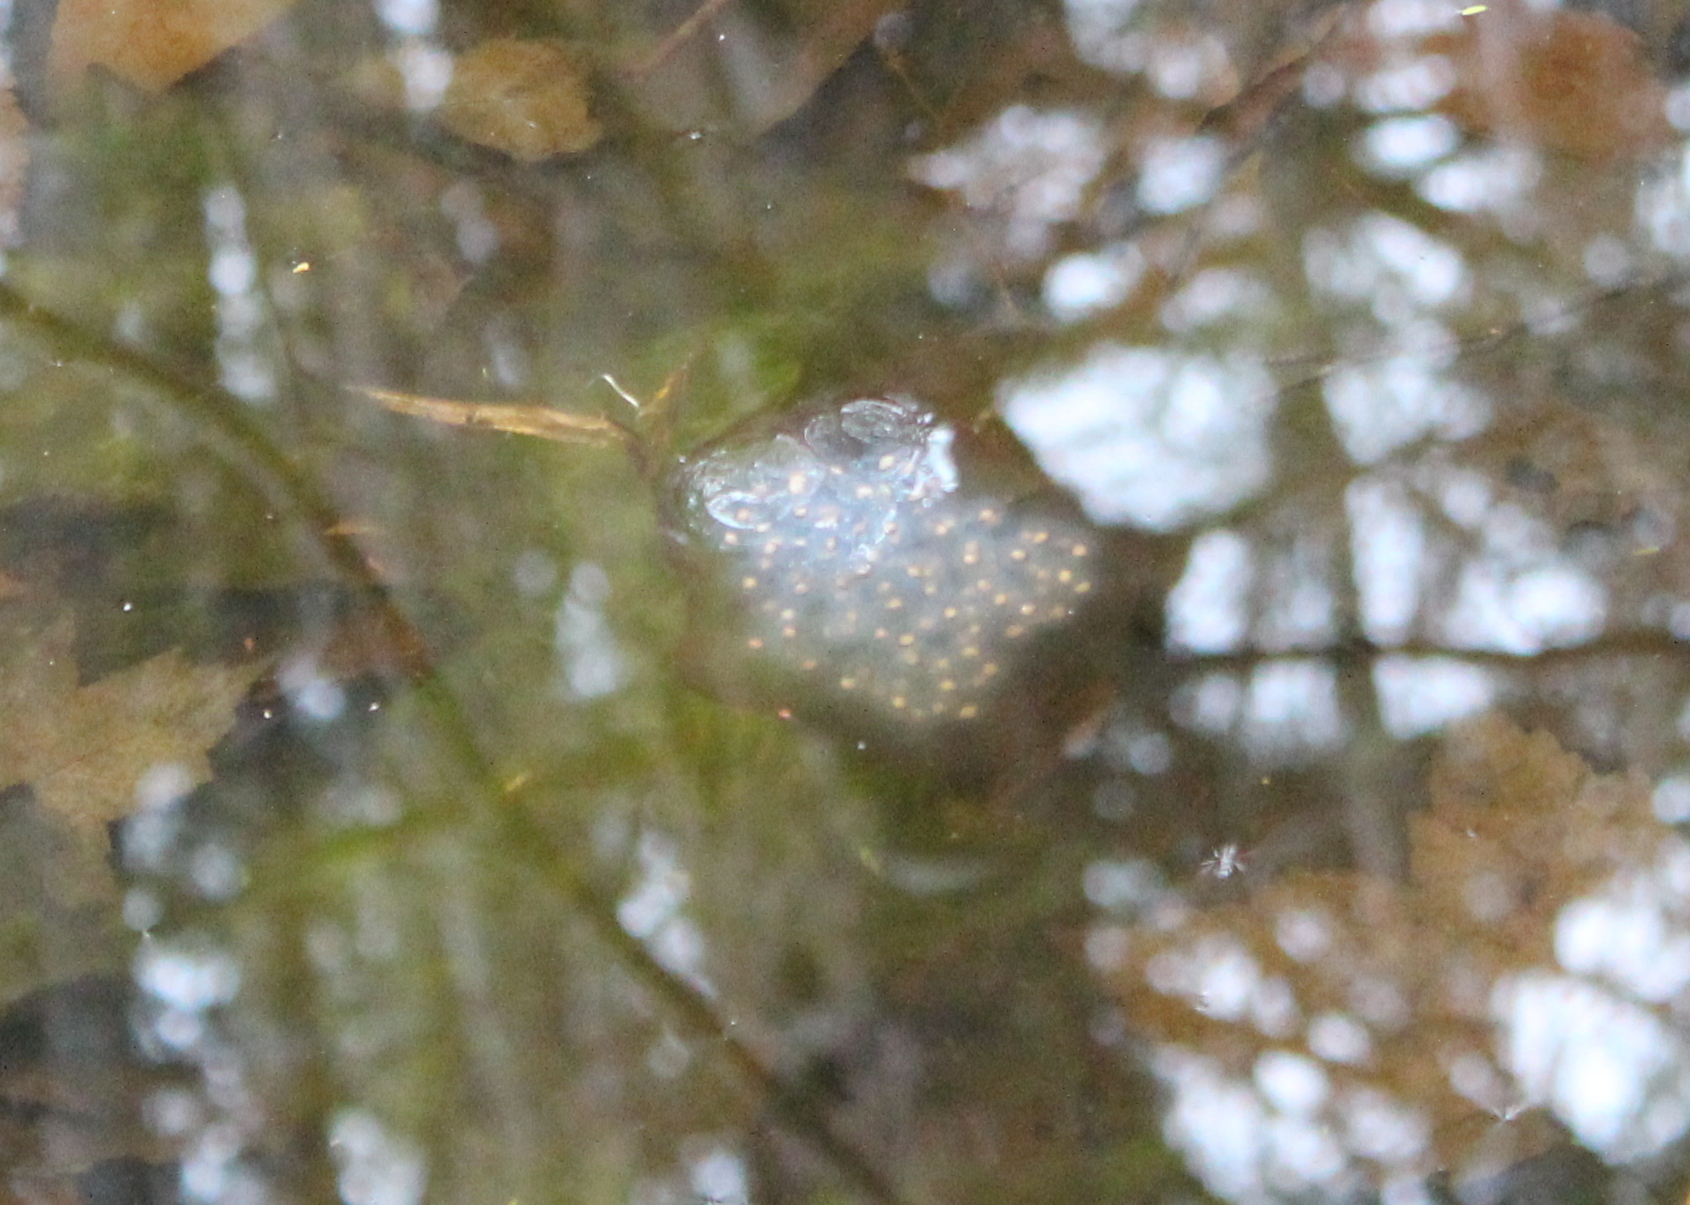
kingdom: Animalia
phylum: Chordata
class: Amphibia
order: Caudata
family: Ambystomatidae
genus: Ambystoma
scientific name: Ambystoma maculatum
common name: Spotted salamander
